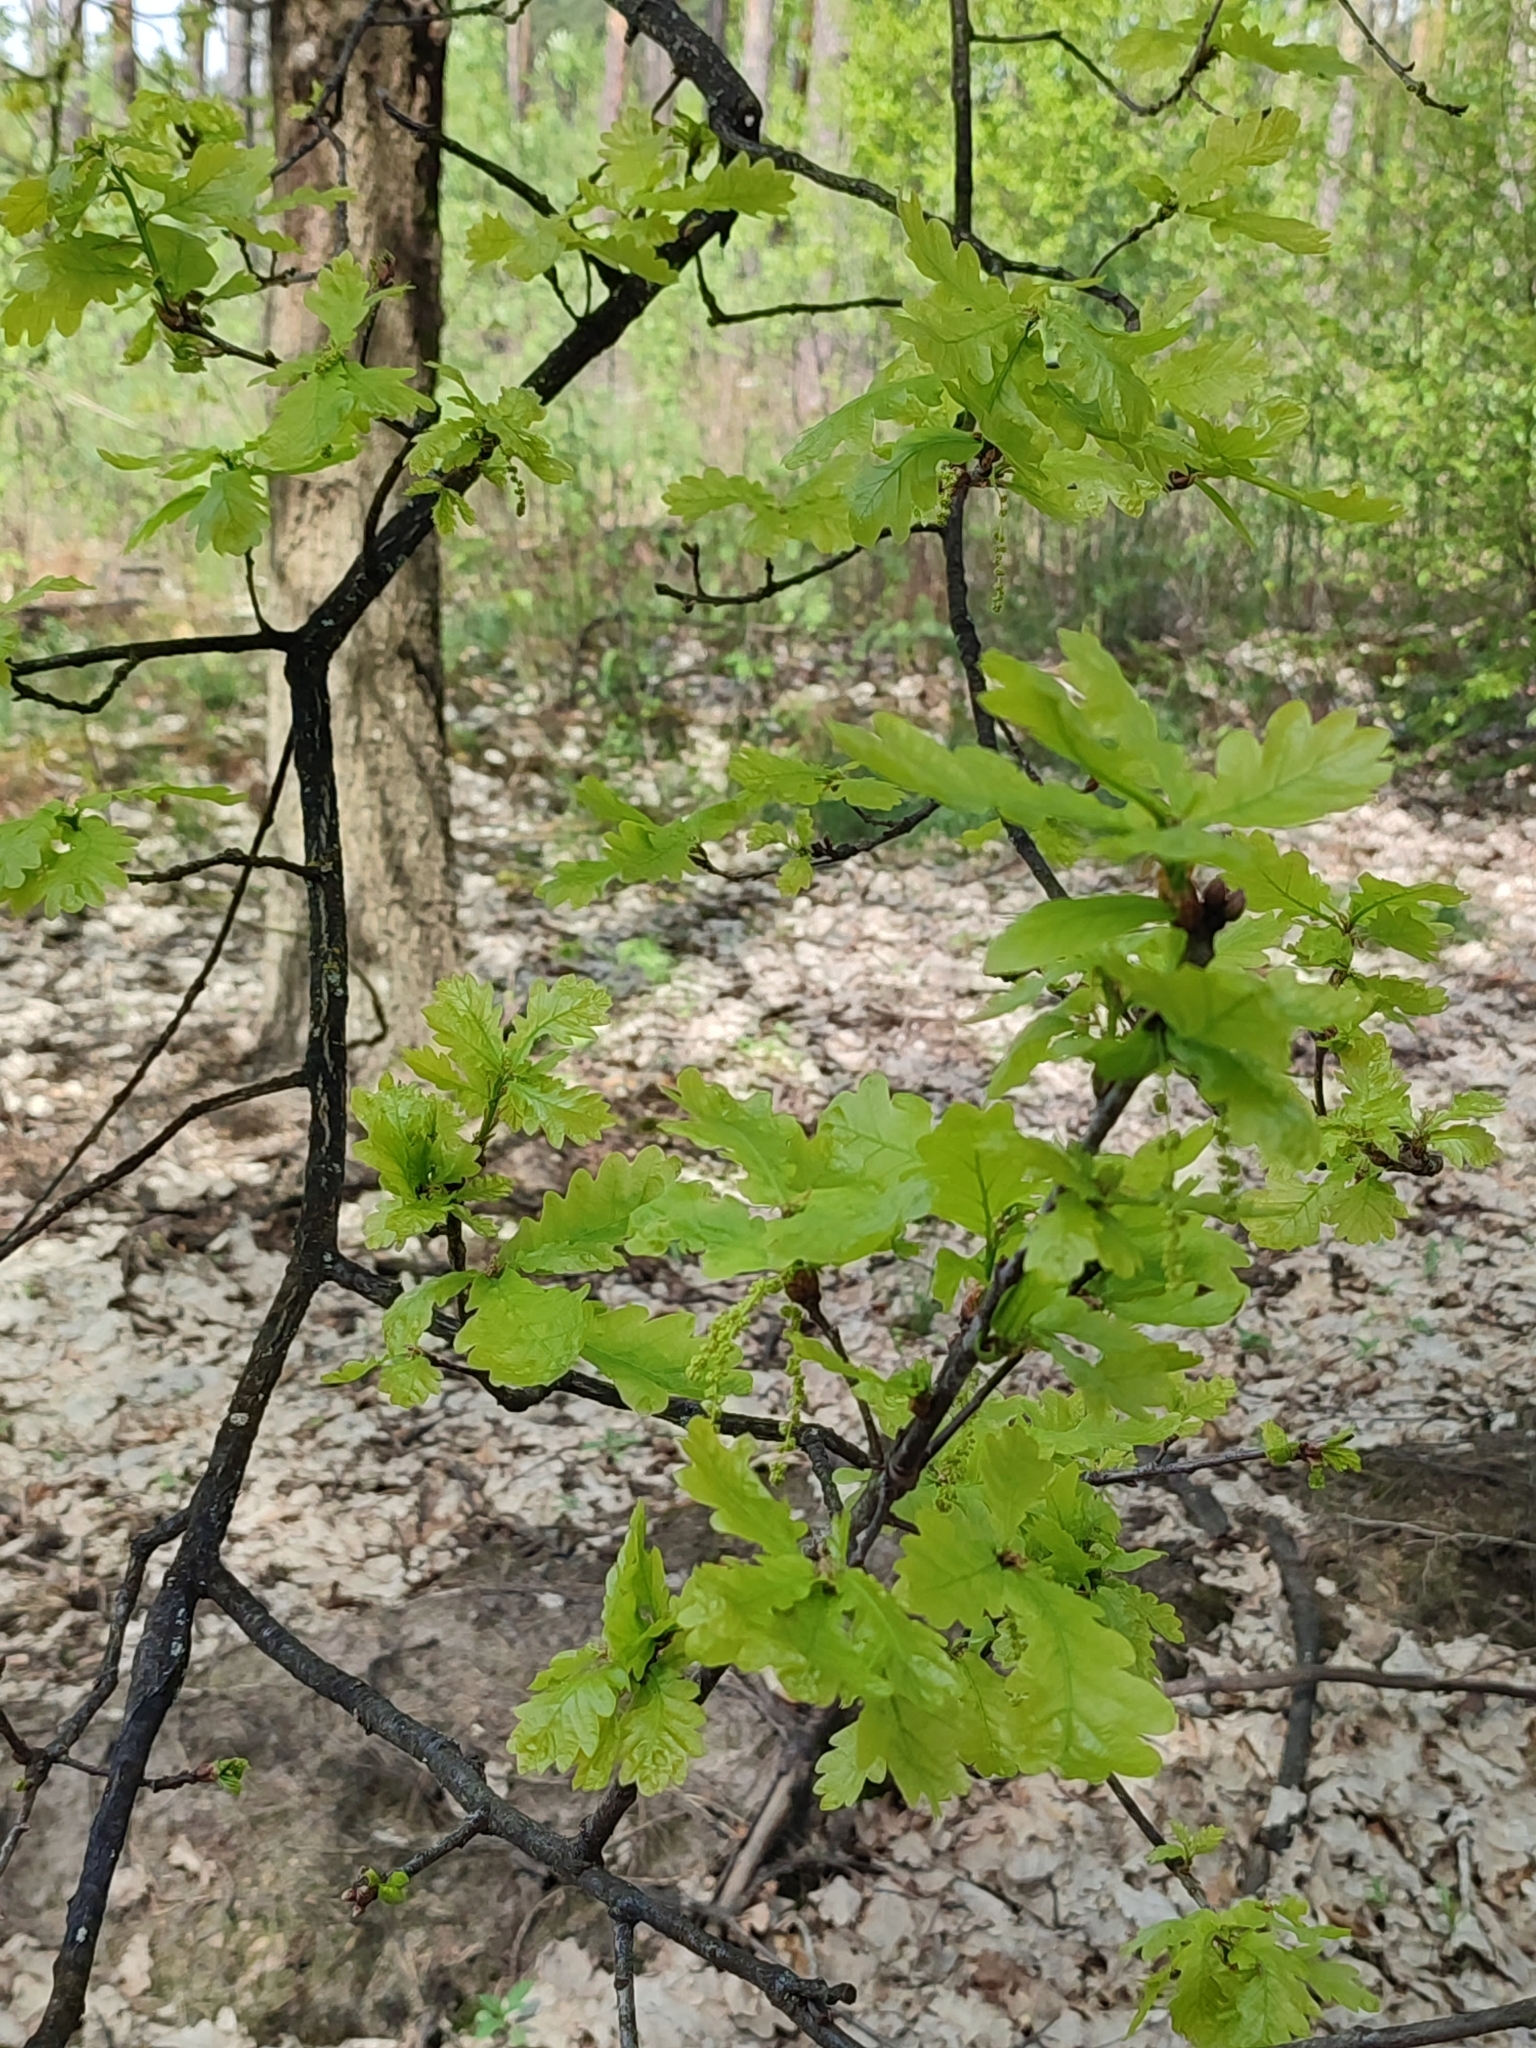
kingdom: Plantae
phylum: Tracheophyta
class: Magnoliopsida
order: Fagales
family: Fagaceae
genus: Quercus
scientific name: Quercus robur
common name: Pedunculate oak
